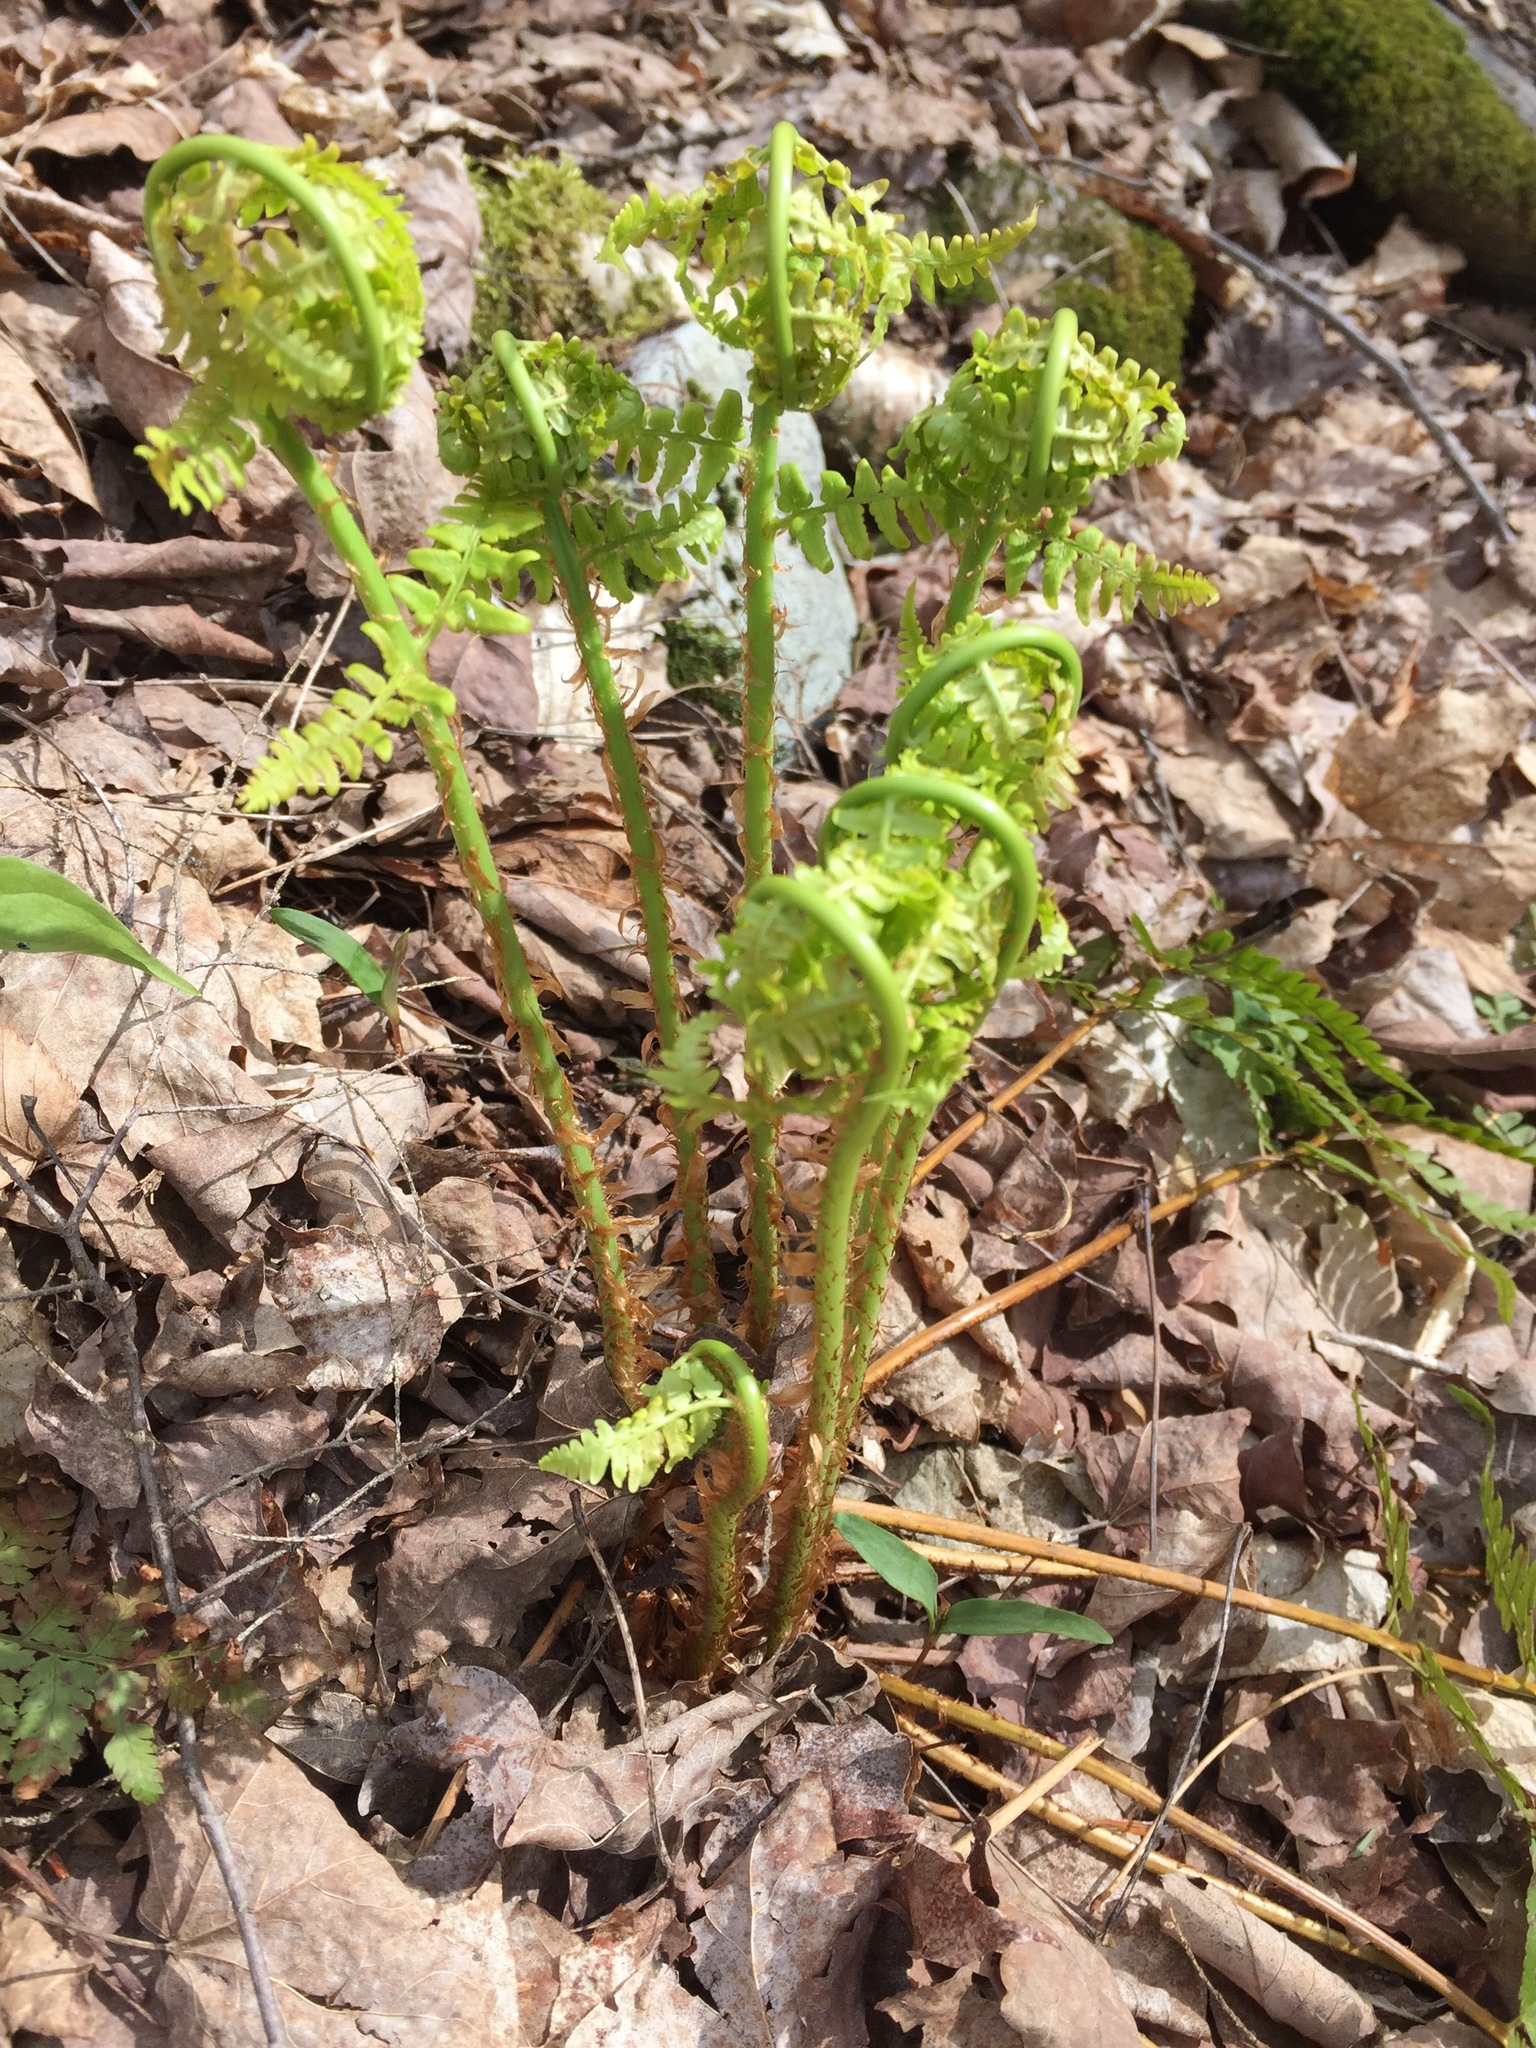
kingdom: Plantae
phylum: Tracheophyta
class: Polypodiopsida
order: Polypodiales
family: Dryopteridaceae
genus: Dryopteris
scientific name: Dryopteris marginalis
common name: Marginal wood fern
